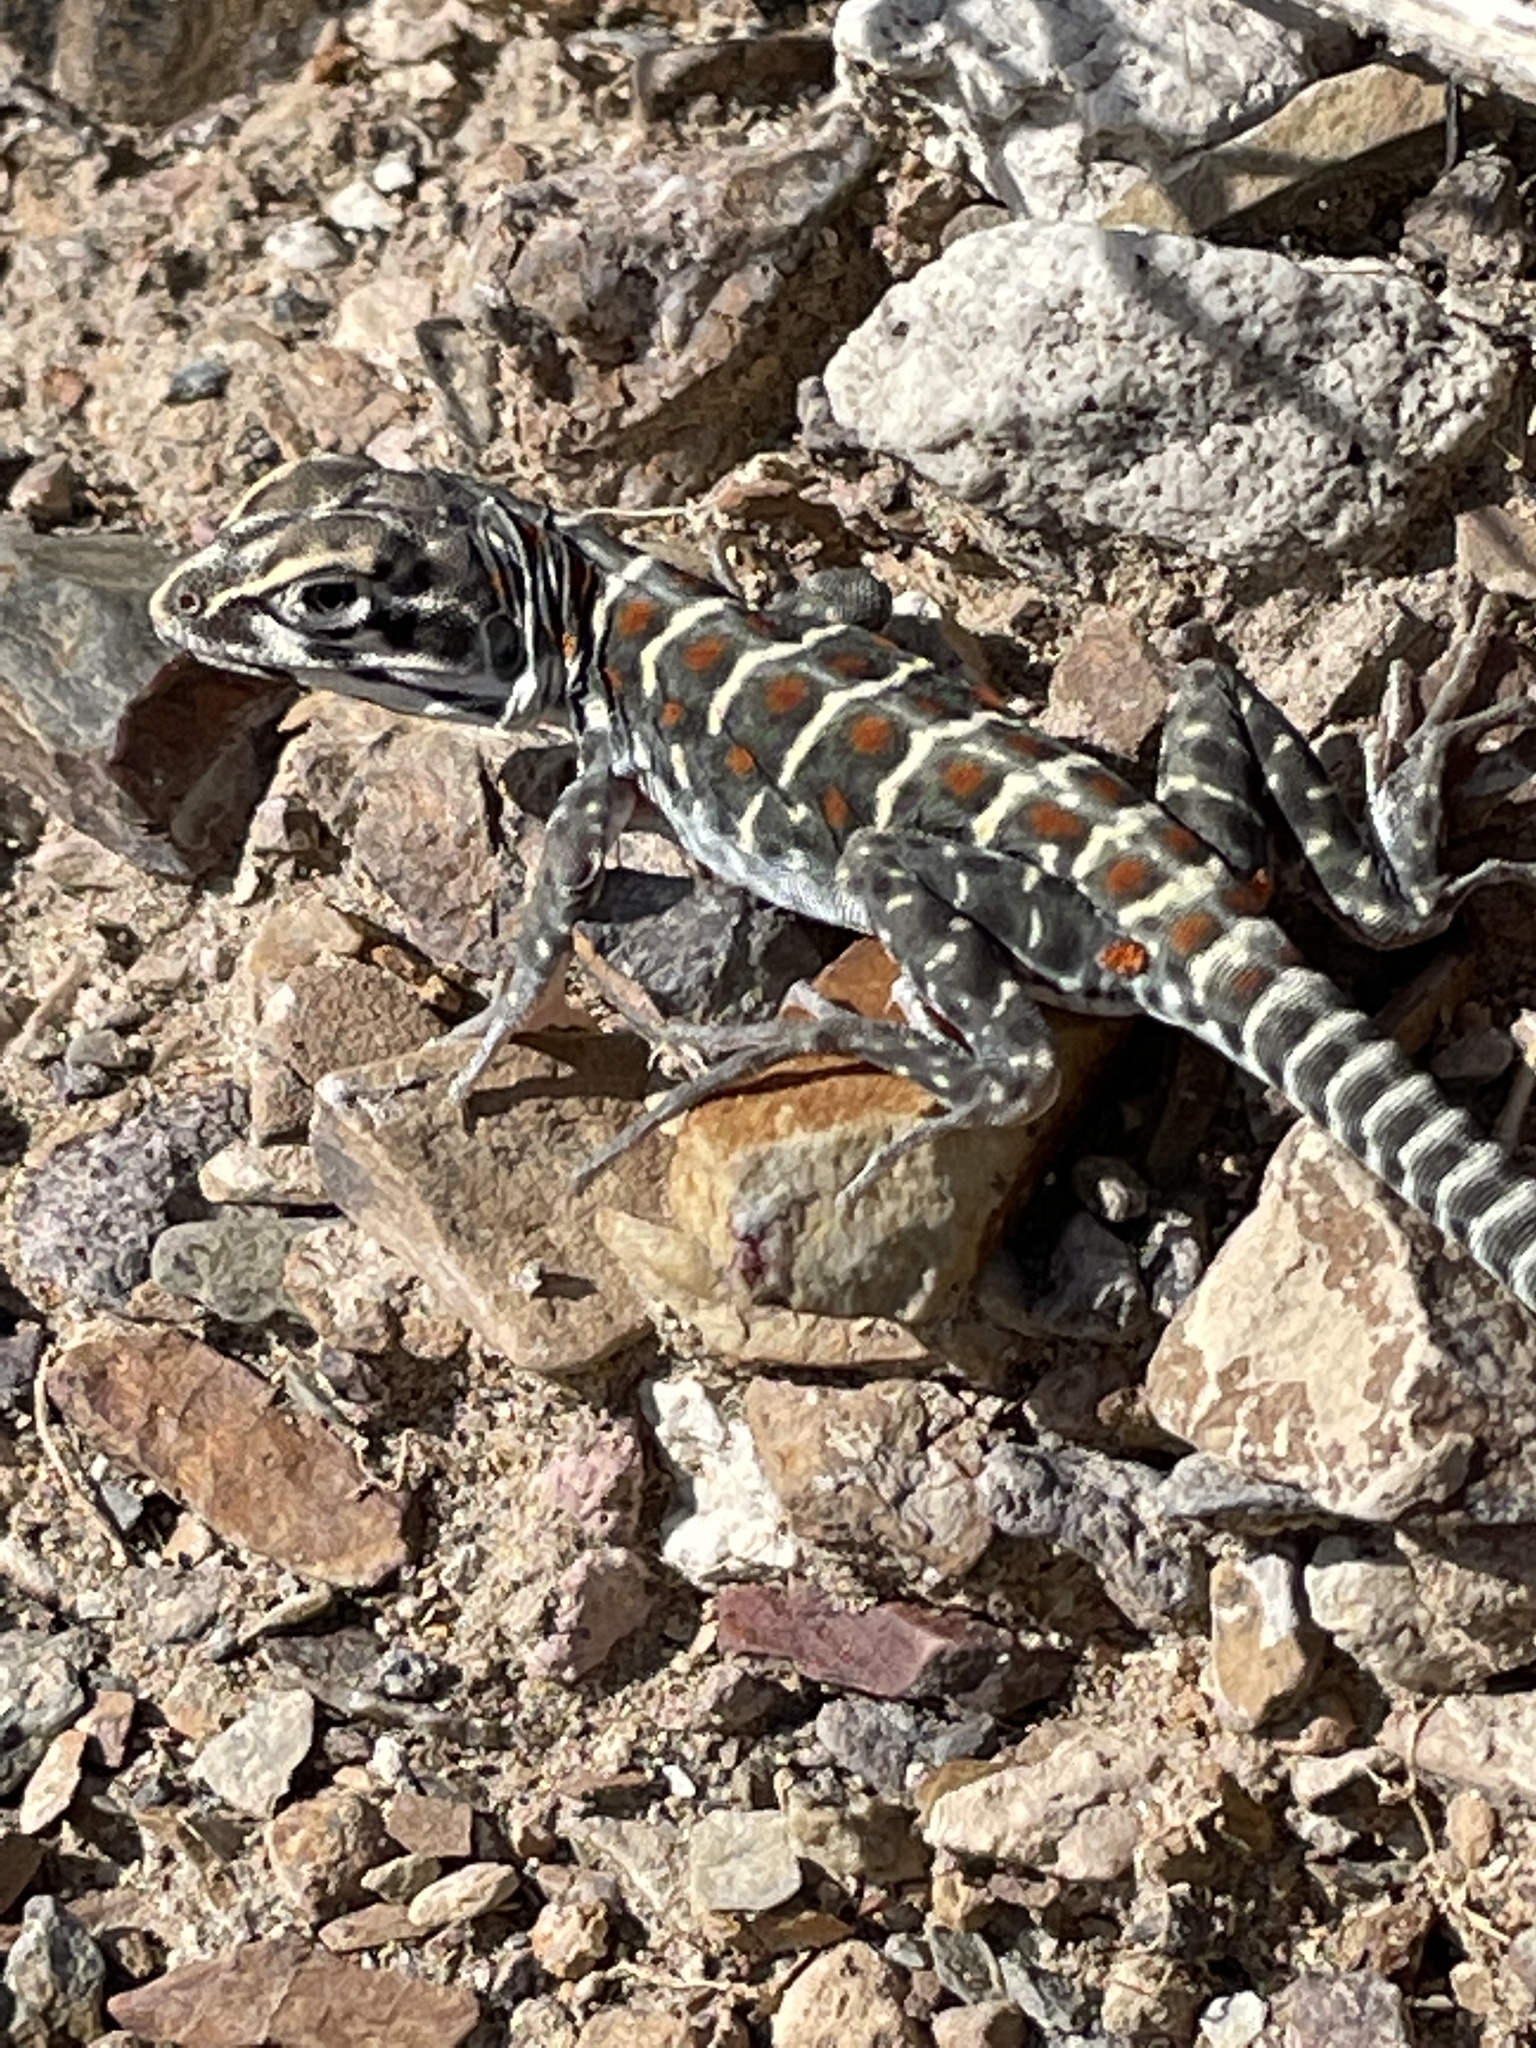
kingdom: Animalia
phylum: Chordata
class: Squamata
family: Crotaphytidae
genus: Gambelia
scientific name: Gambelia wislizenii
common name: Longnose leopard lizard
